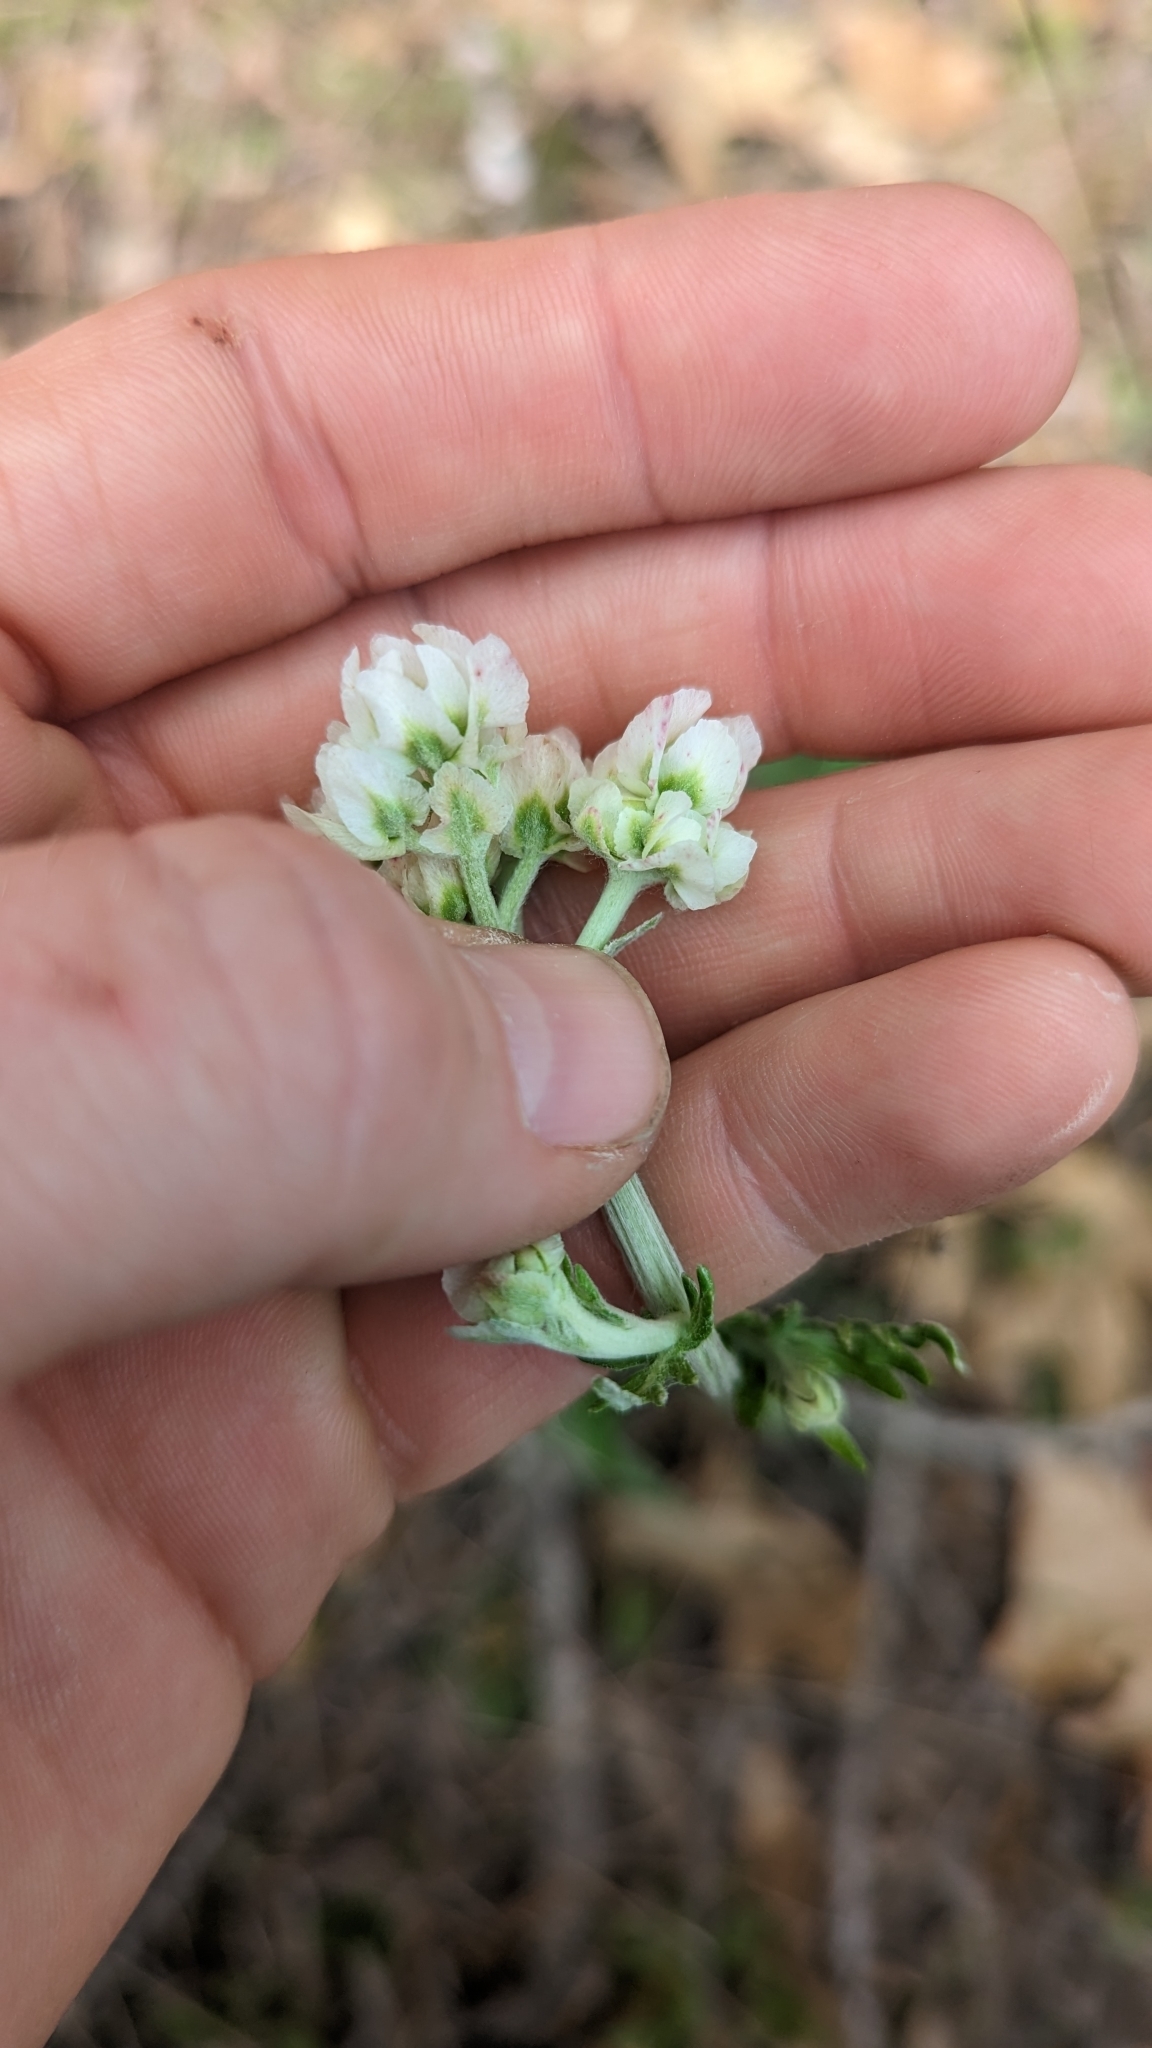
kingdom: Plantae
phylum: Tracheophyta
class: Magnoliopsida
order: Asterales
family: Asteraceae
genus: Hymenopappus
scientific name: Hymenopappus artemisiifolius
